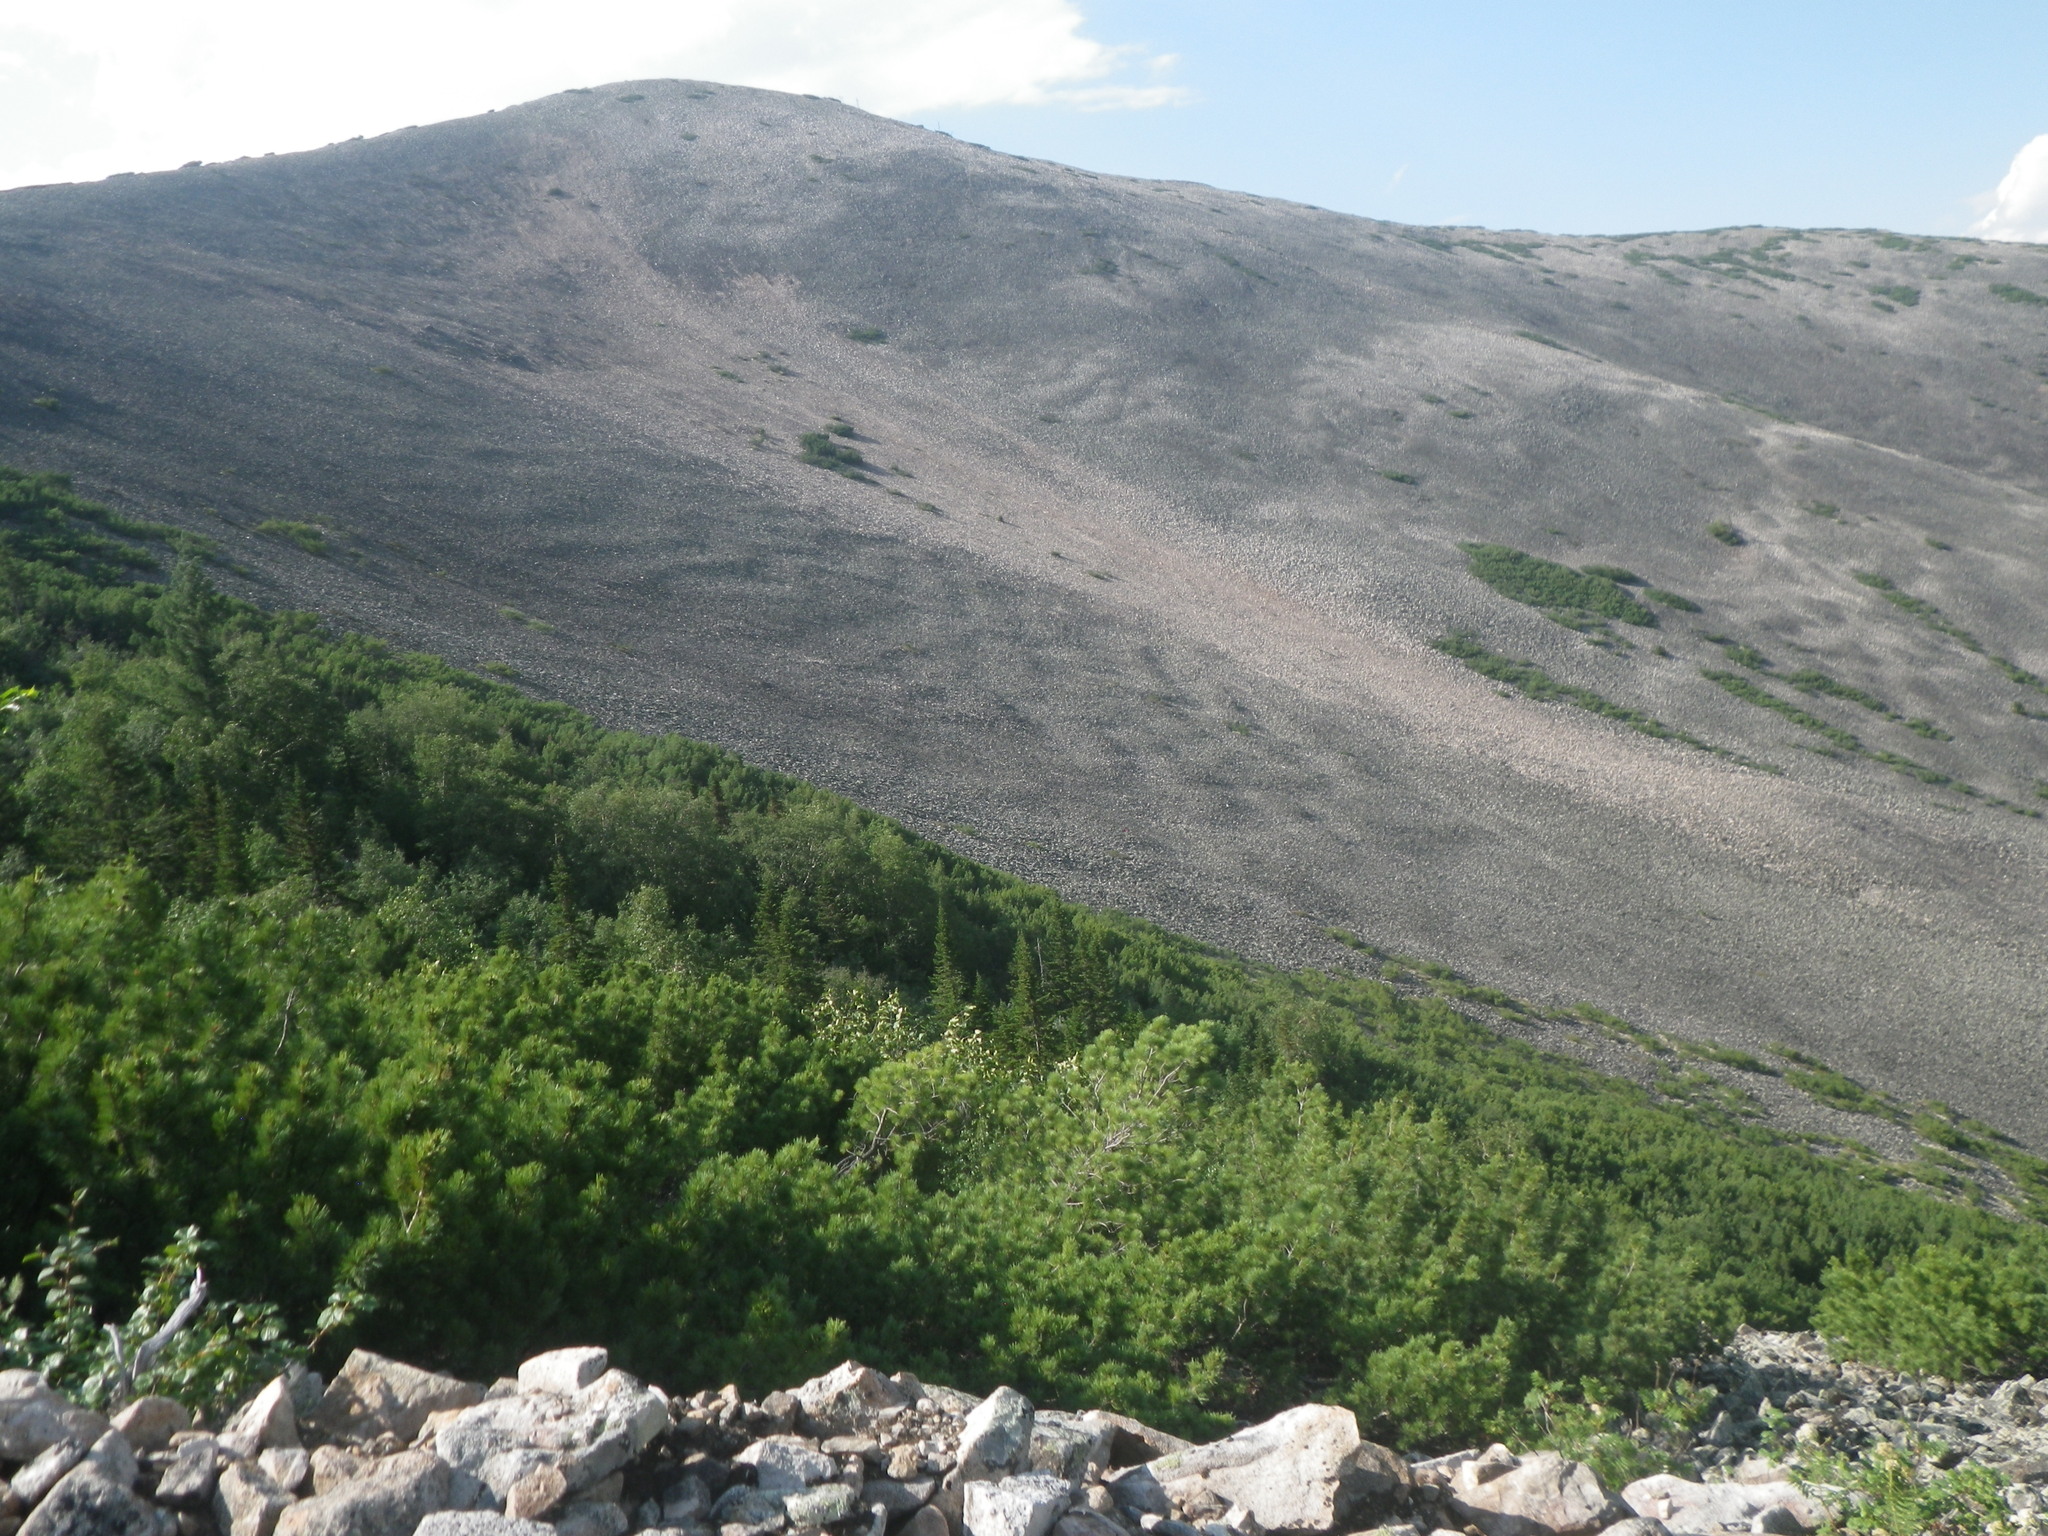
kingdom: Plantae
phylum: Tracheophyta
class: Pinopsida
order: Pinales
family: Pinaceae
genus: Pinus
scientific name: Pinus pumila
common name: Dwarf siberian pine
